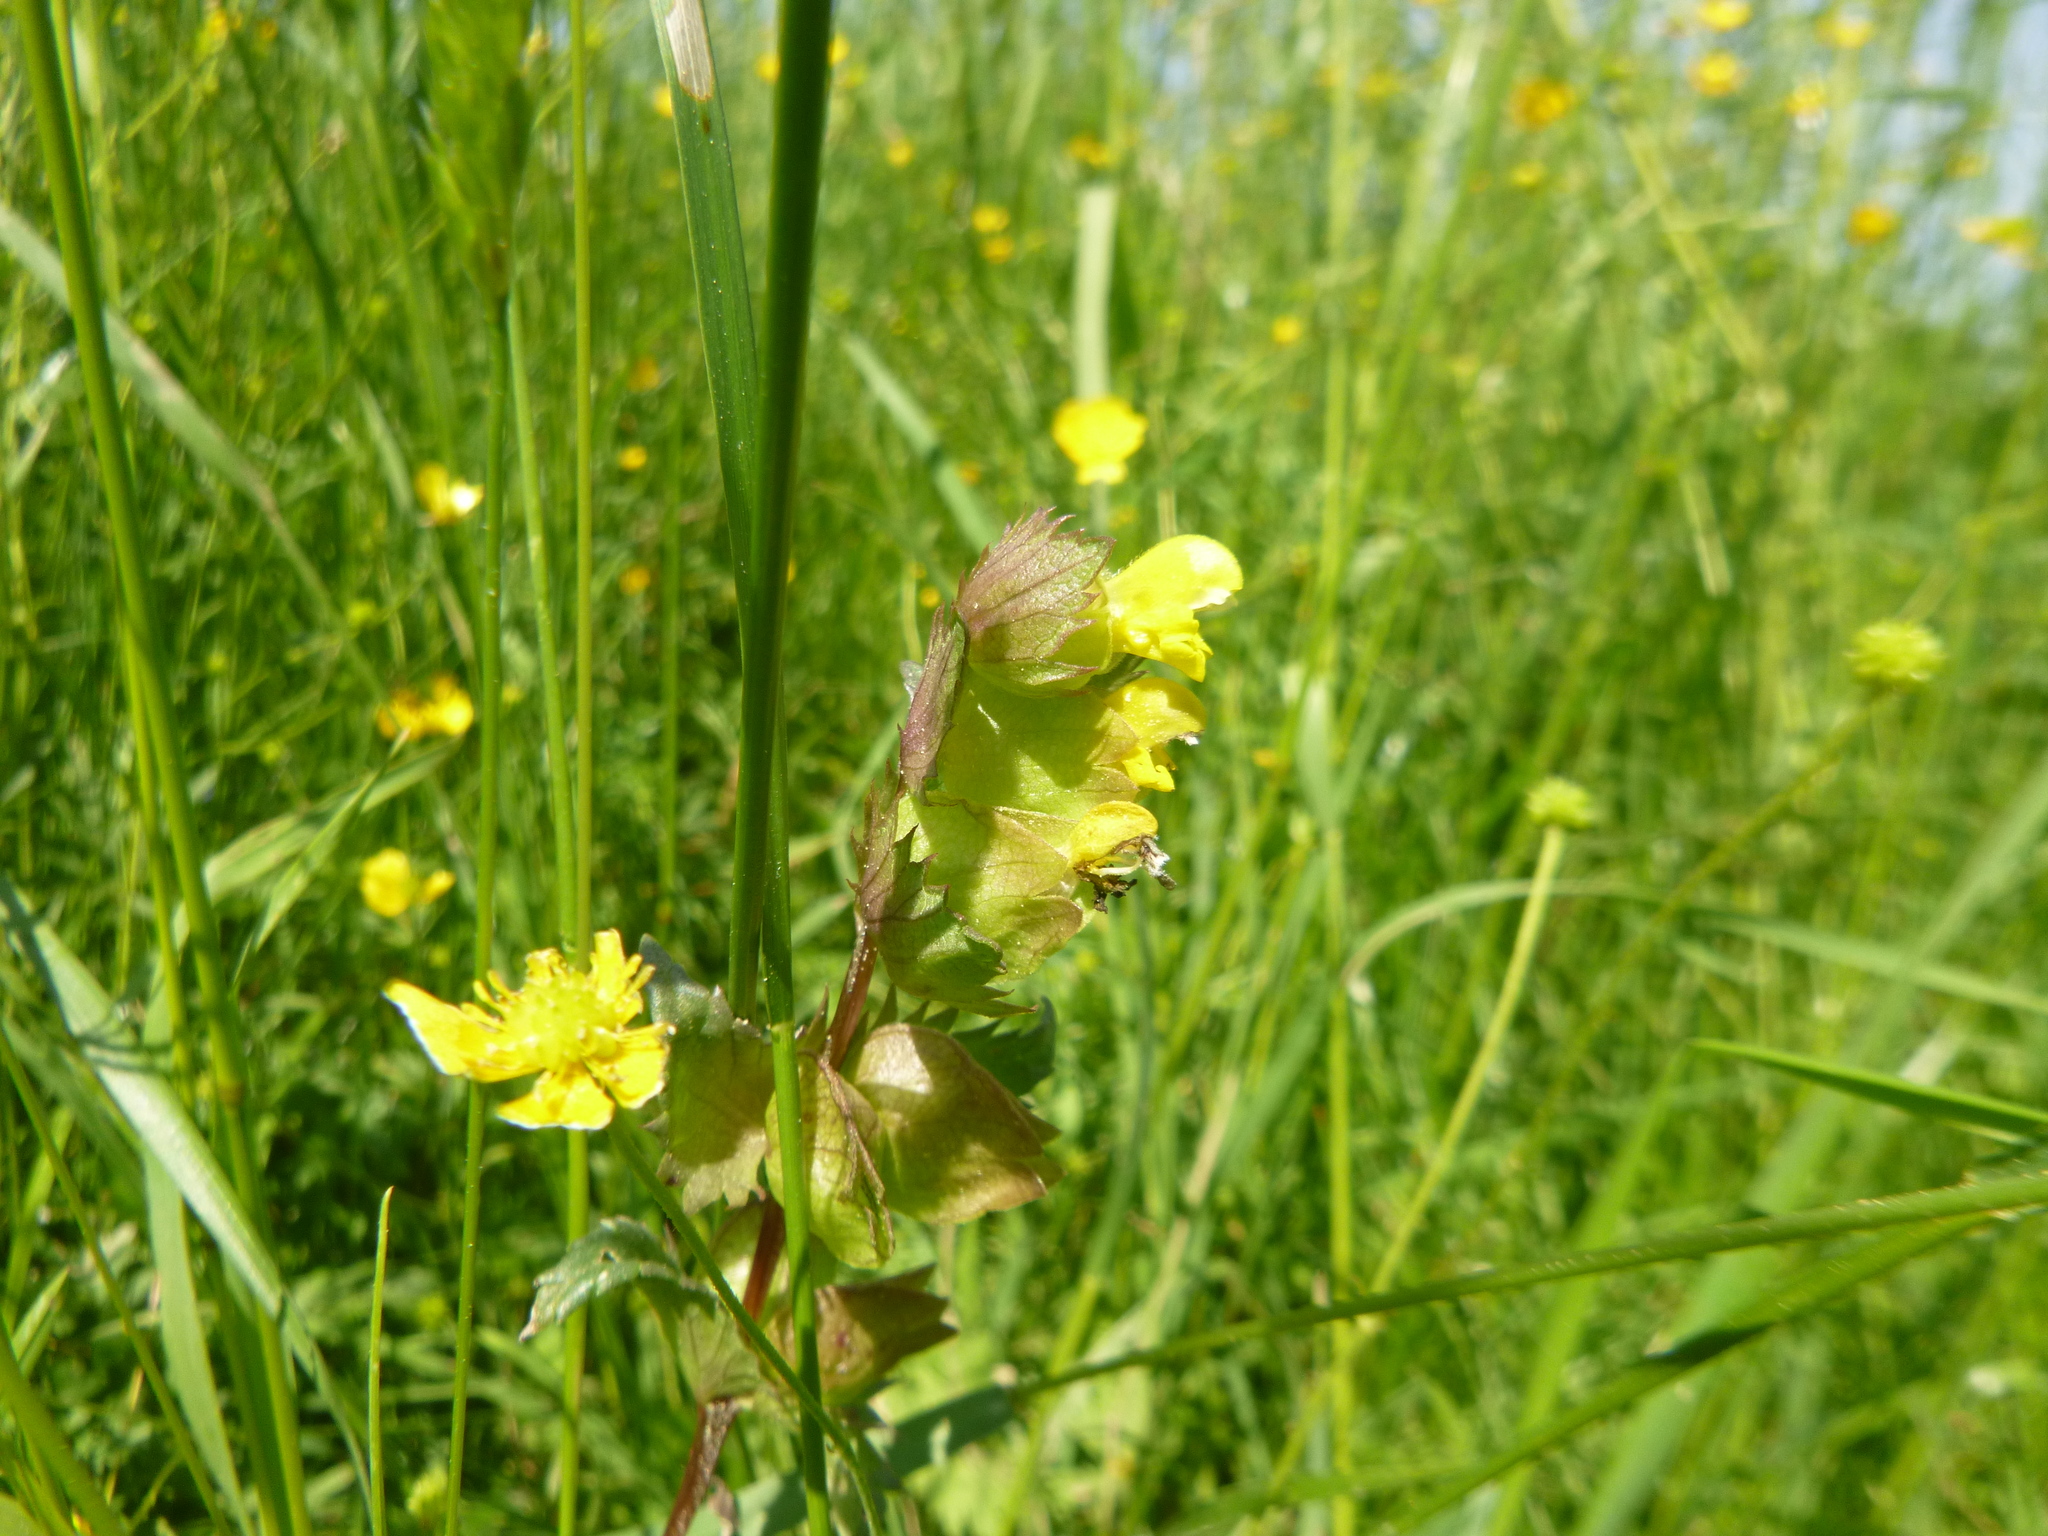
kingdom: Plantae
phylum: Tracheophyta
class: Magnoliopsida
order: Lamiales
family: Orobanchaceae
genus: Rhinanthus
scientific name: Rhinanthus minor
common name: Yellow-rattle
